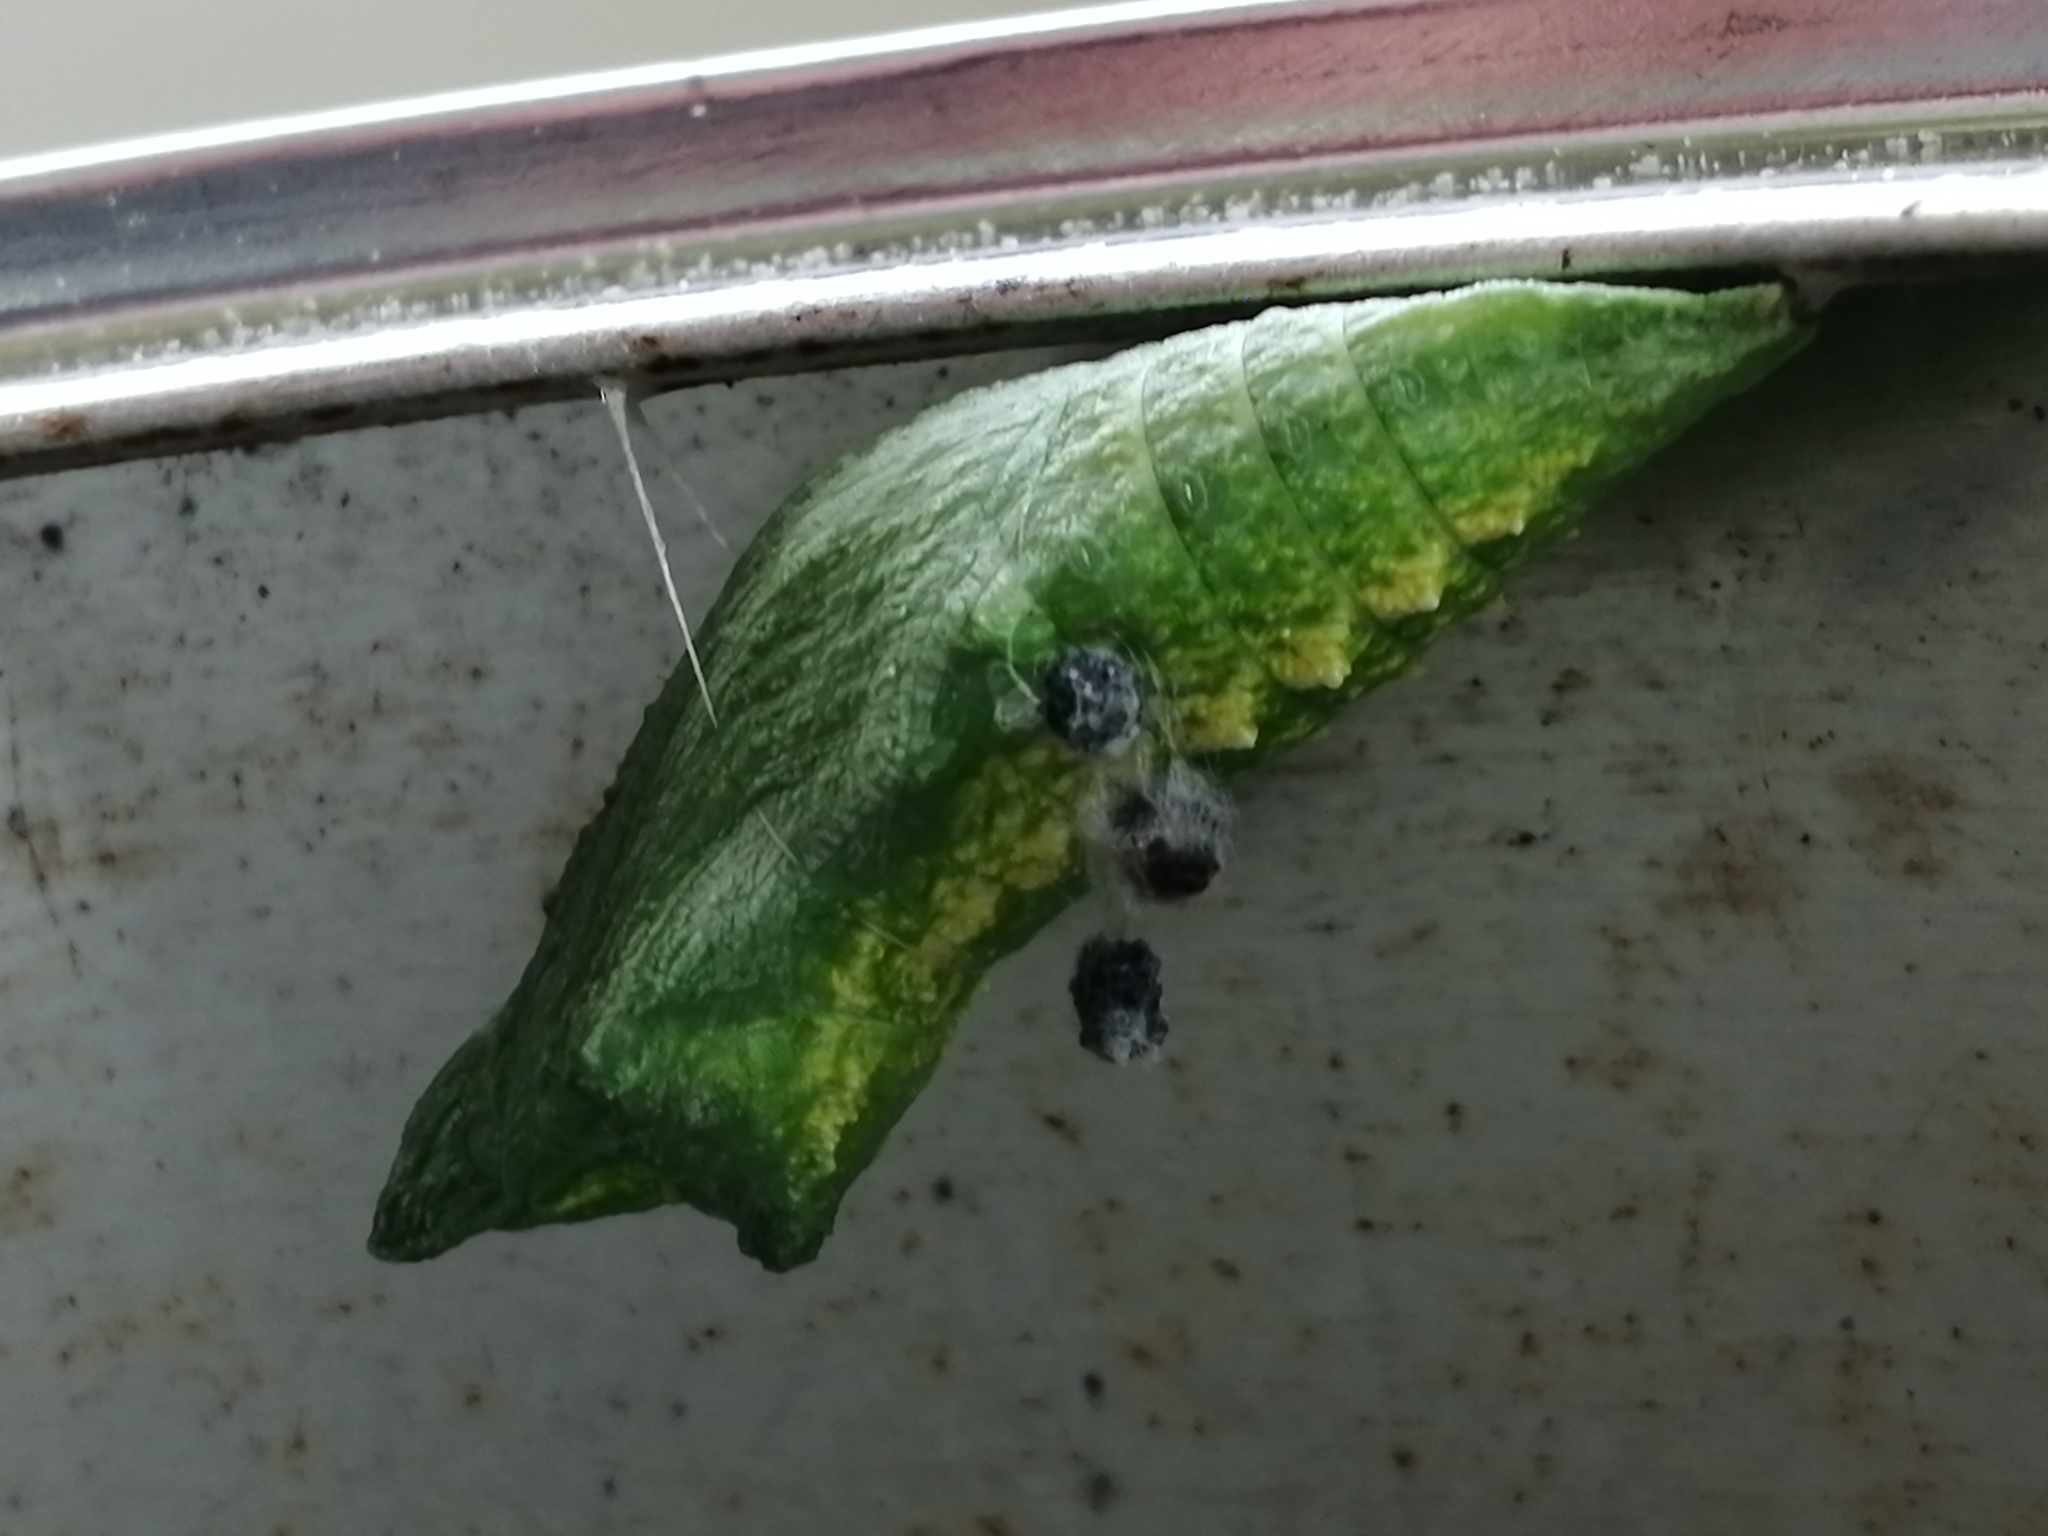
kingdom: Animalia
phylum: Arthropoda
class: Insecta
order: Lepidoptera
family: Papilionidae
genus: Papilio
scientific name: Papilio polyxenes
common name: Black swallowtail
